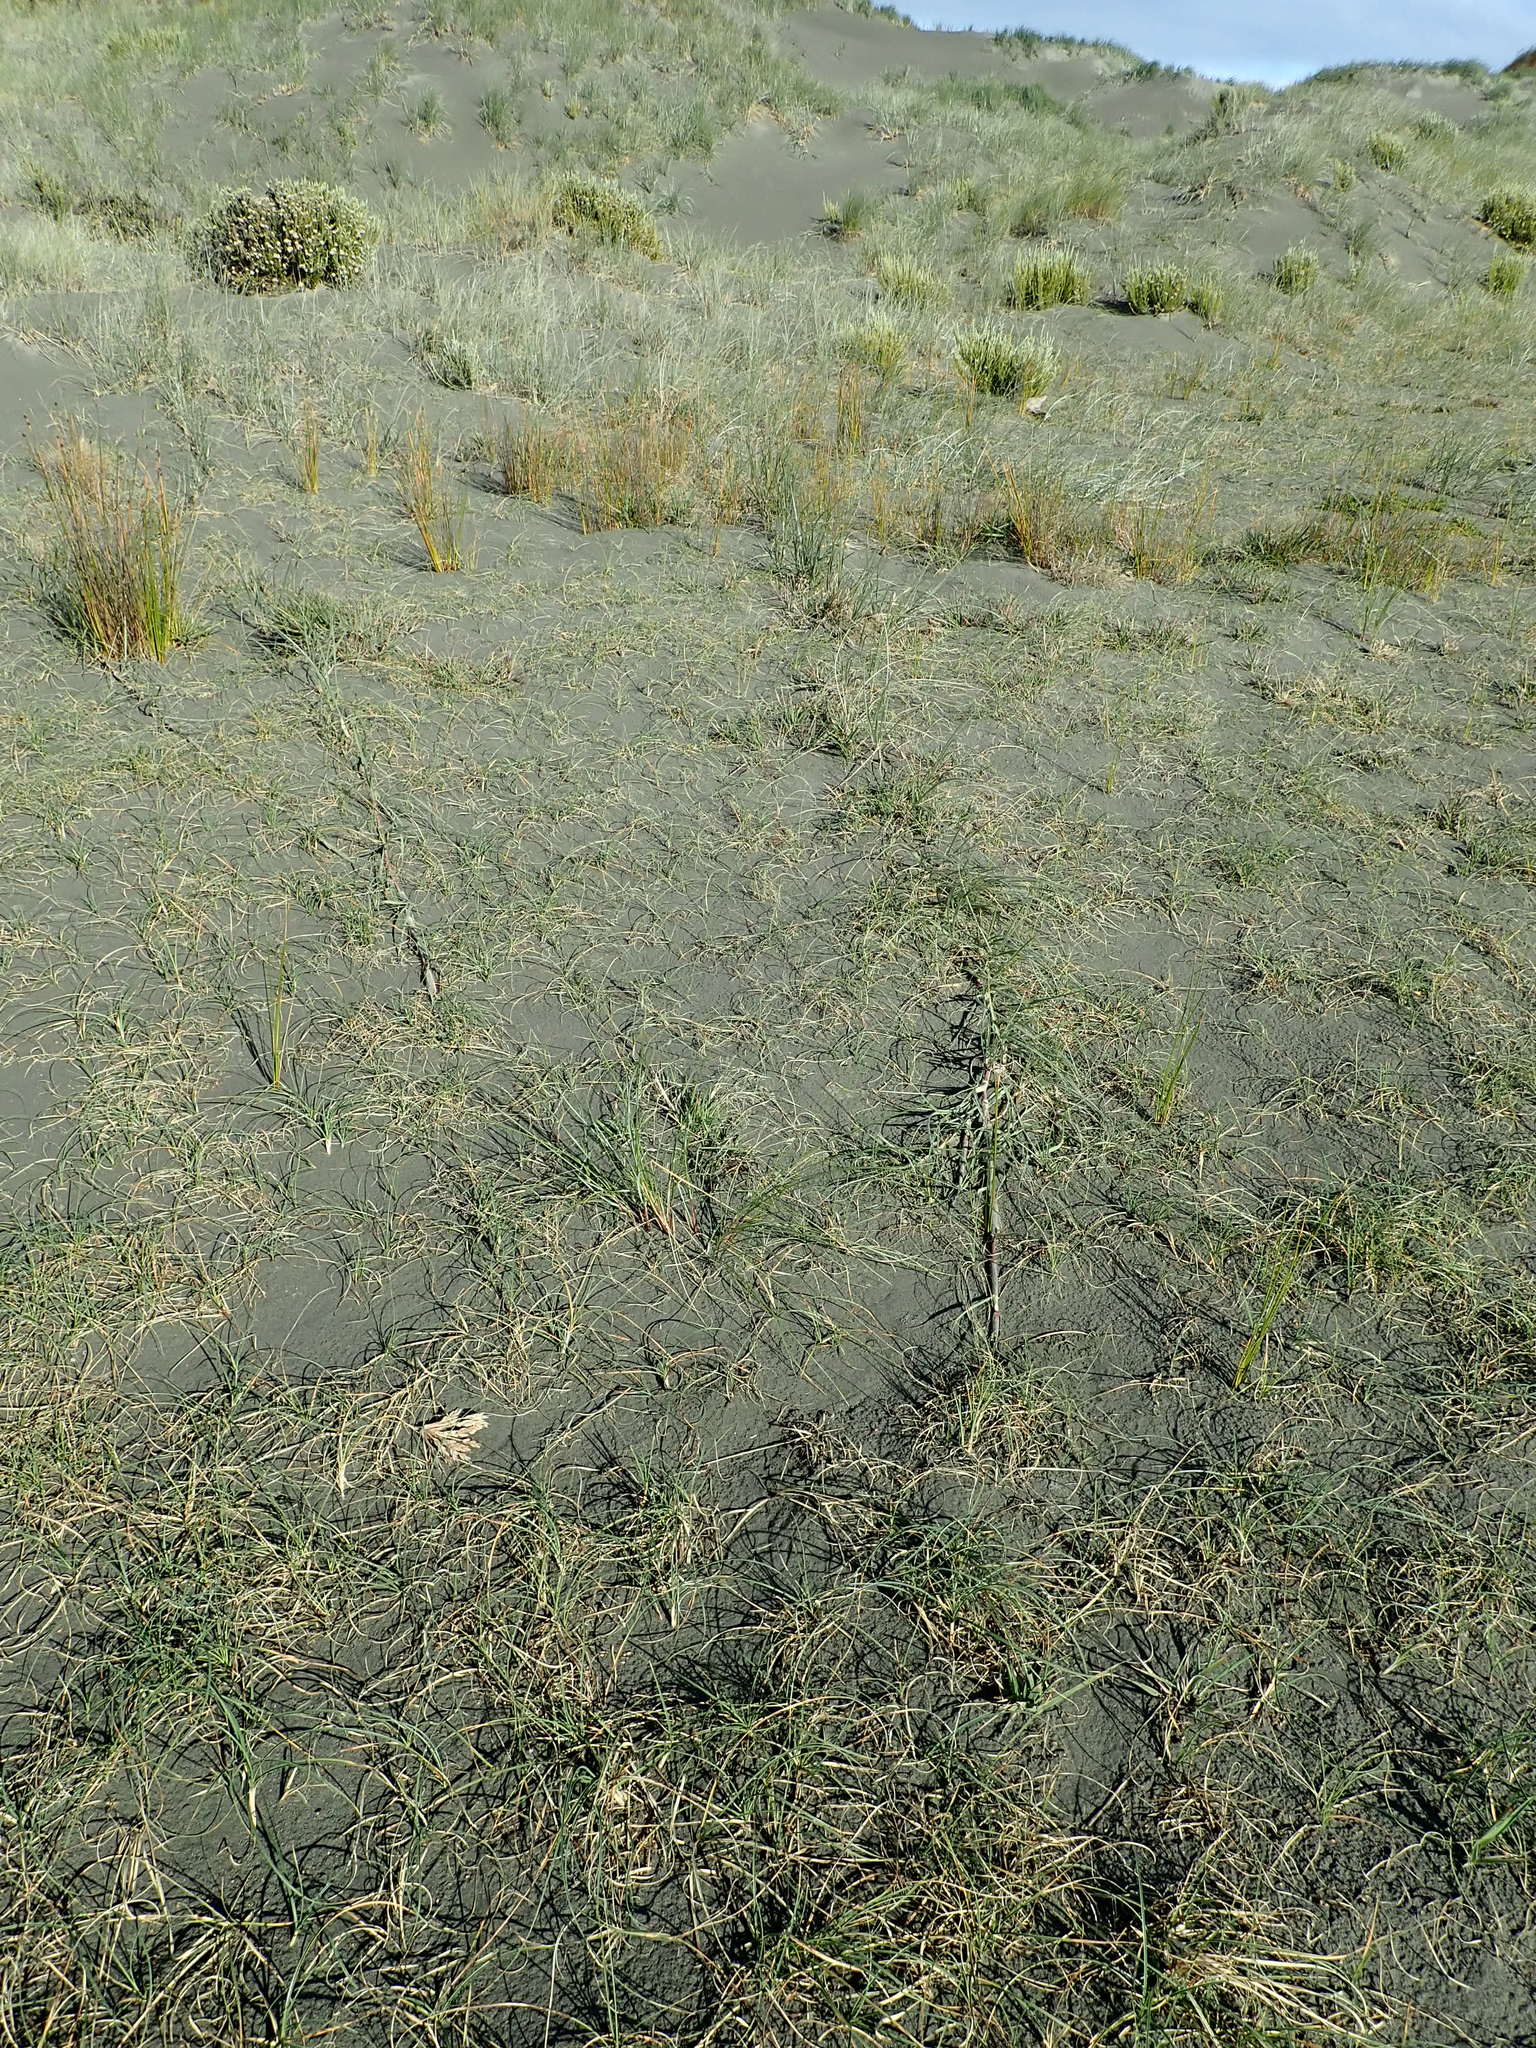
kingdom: Plantae
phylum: Tracheophyta
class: Liliopsida
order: Poales
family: Poaceae
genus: Spinifex
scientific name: Spinifex sericeus
